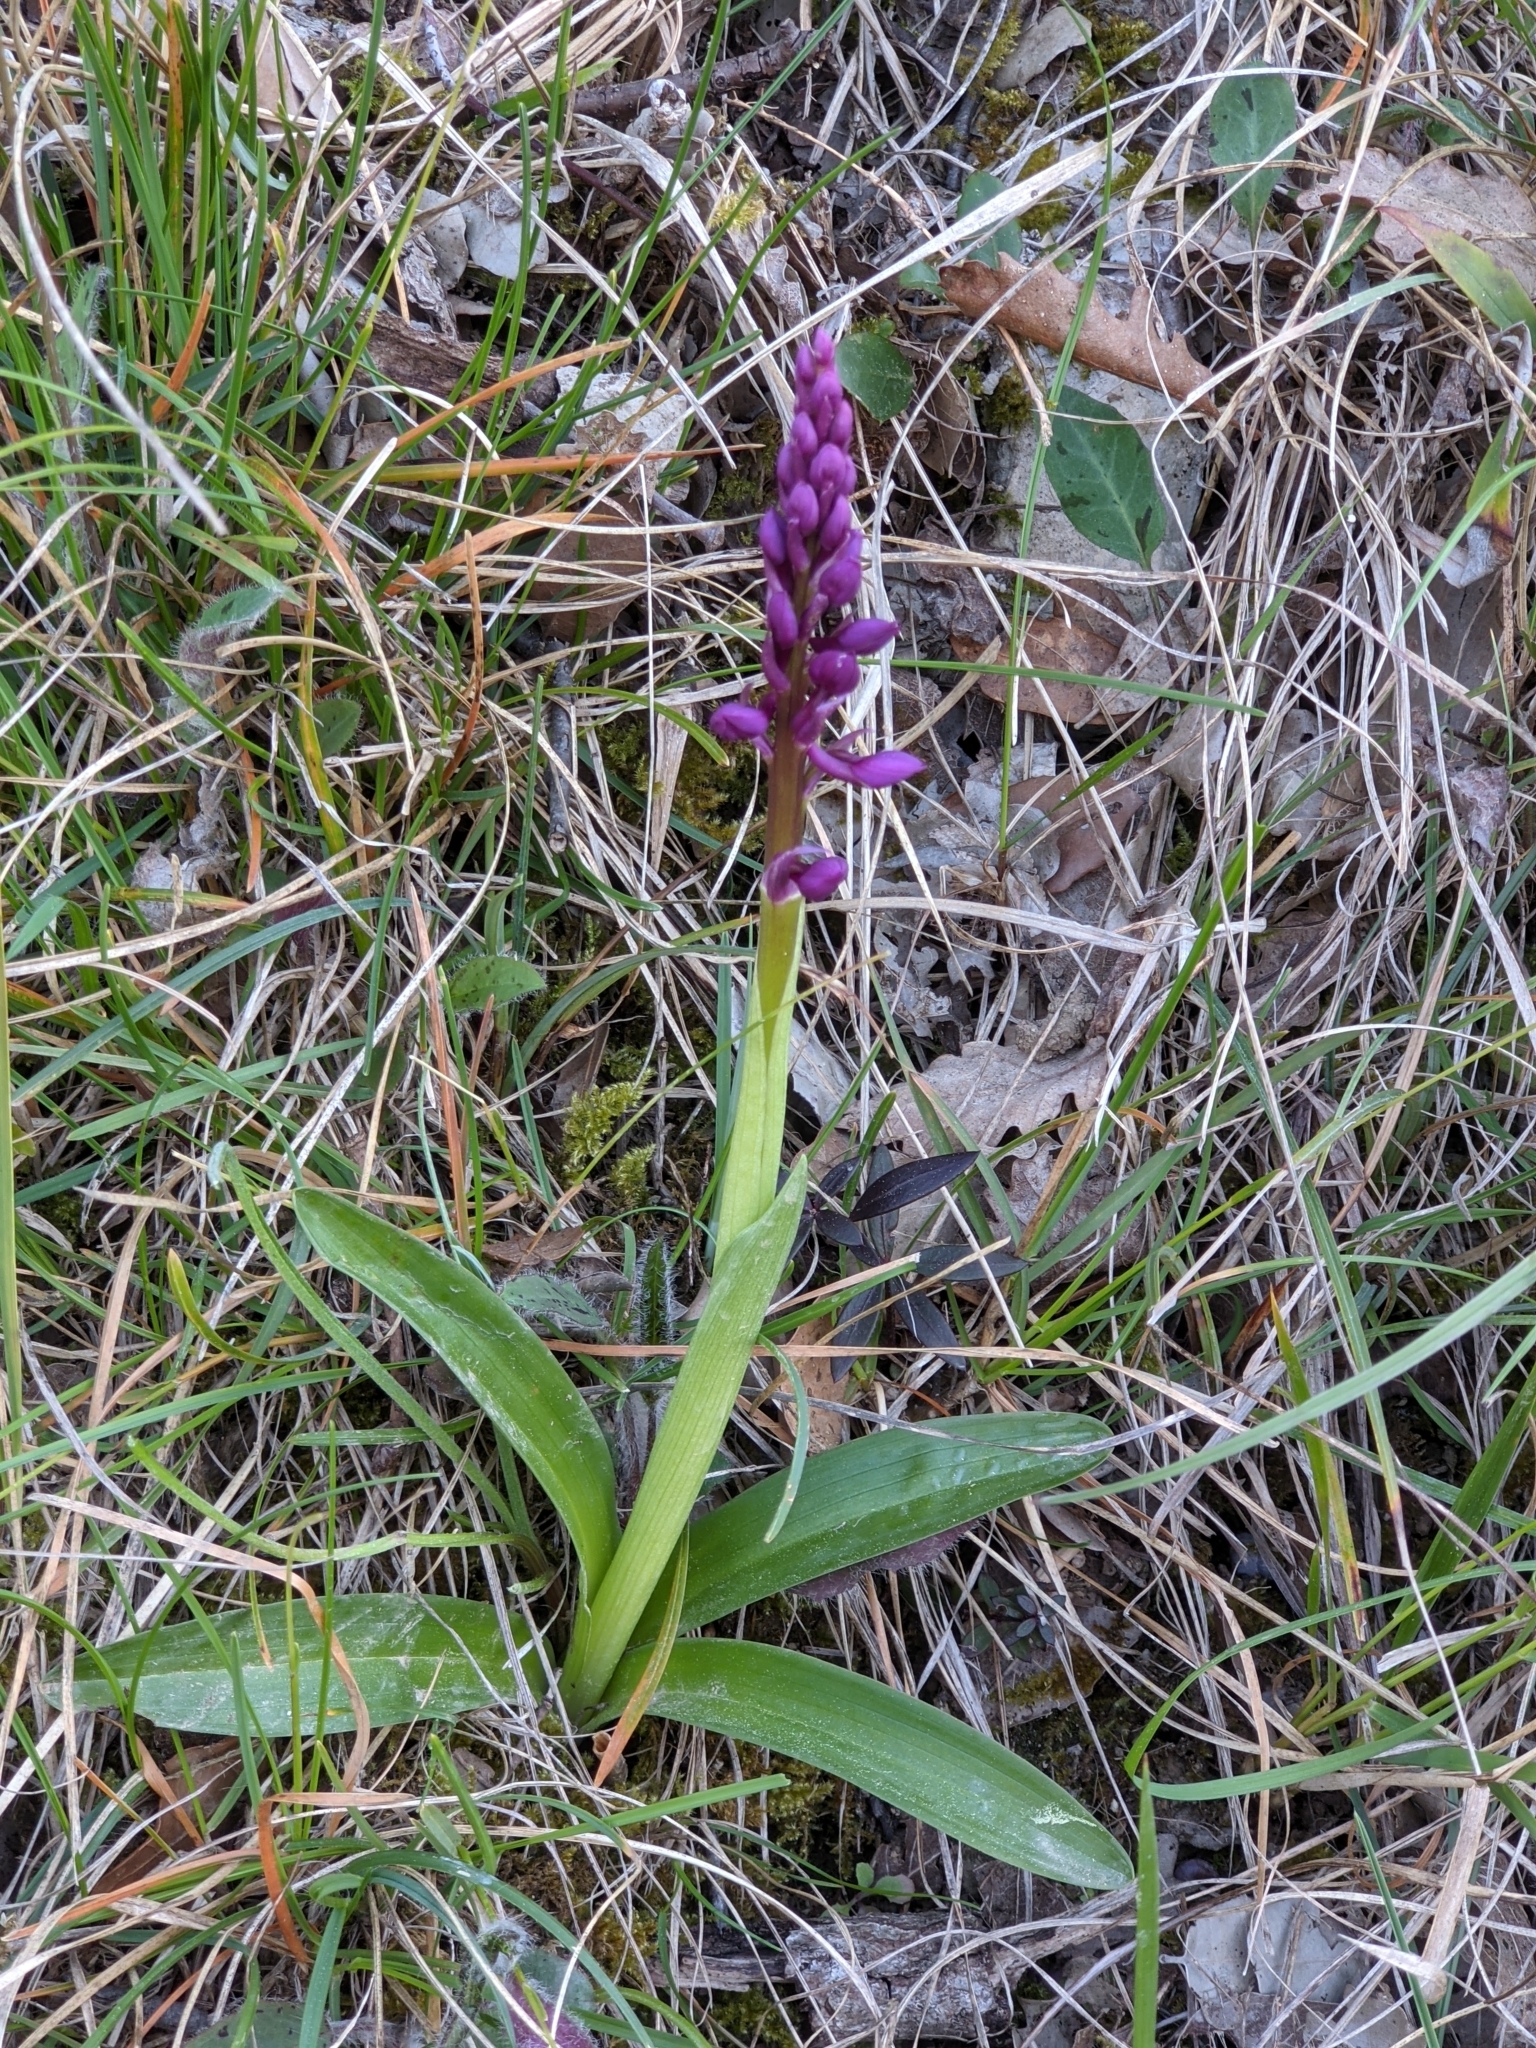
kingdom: Plantae
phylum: Tracheophyta
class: Liliopsida
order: Asparagales
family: Orchidaceae
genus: Orchis
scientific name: Orchis mascula
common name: Early-purple orchid
